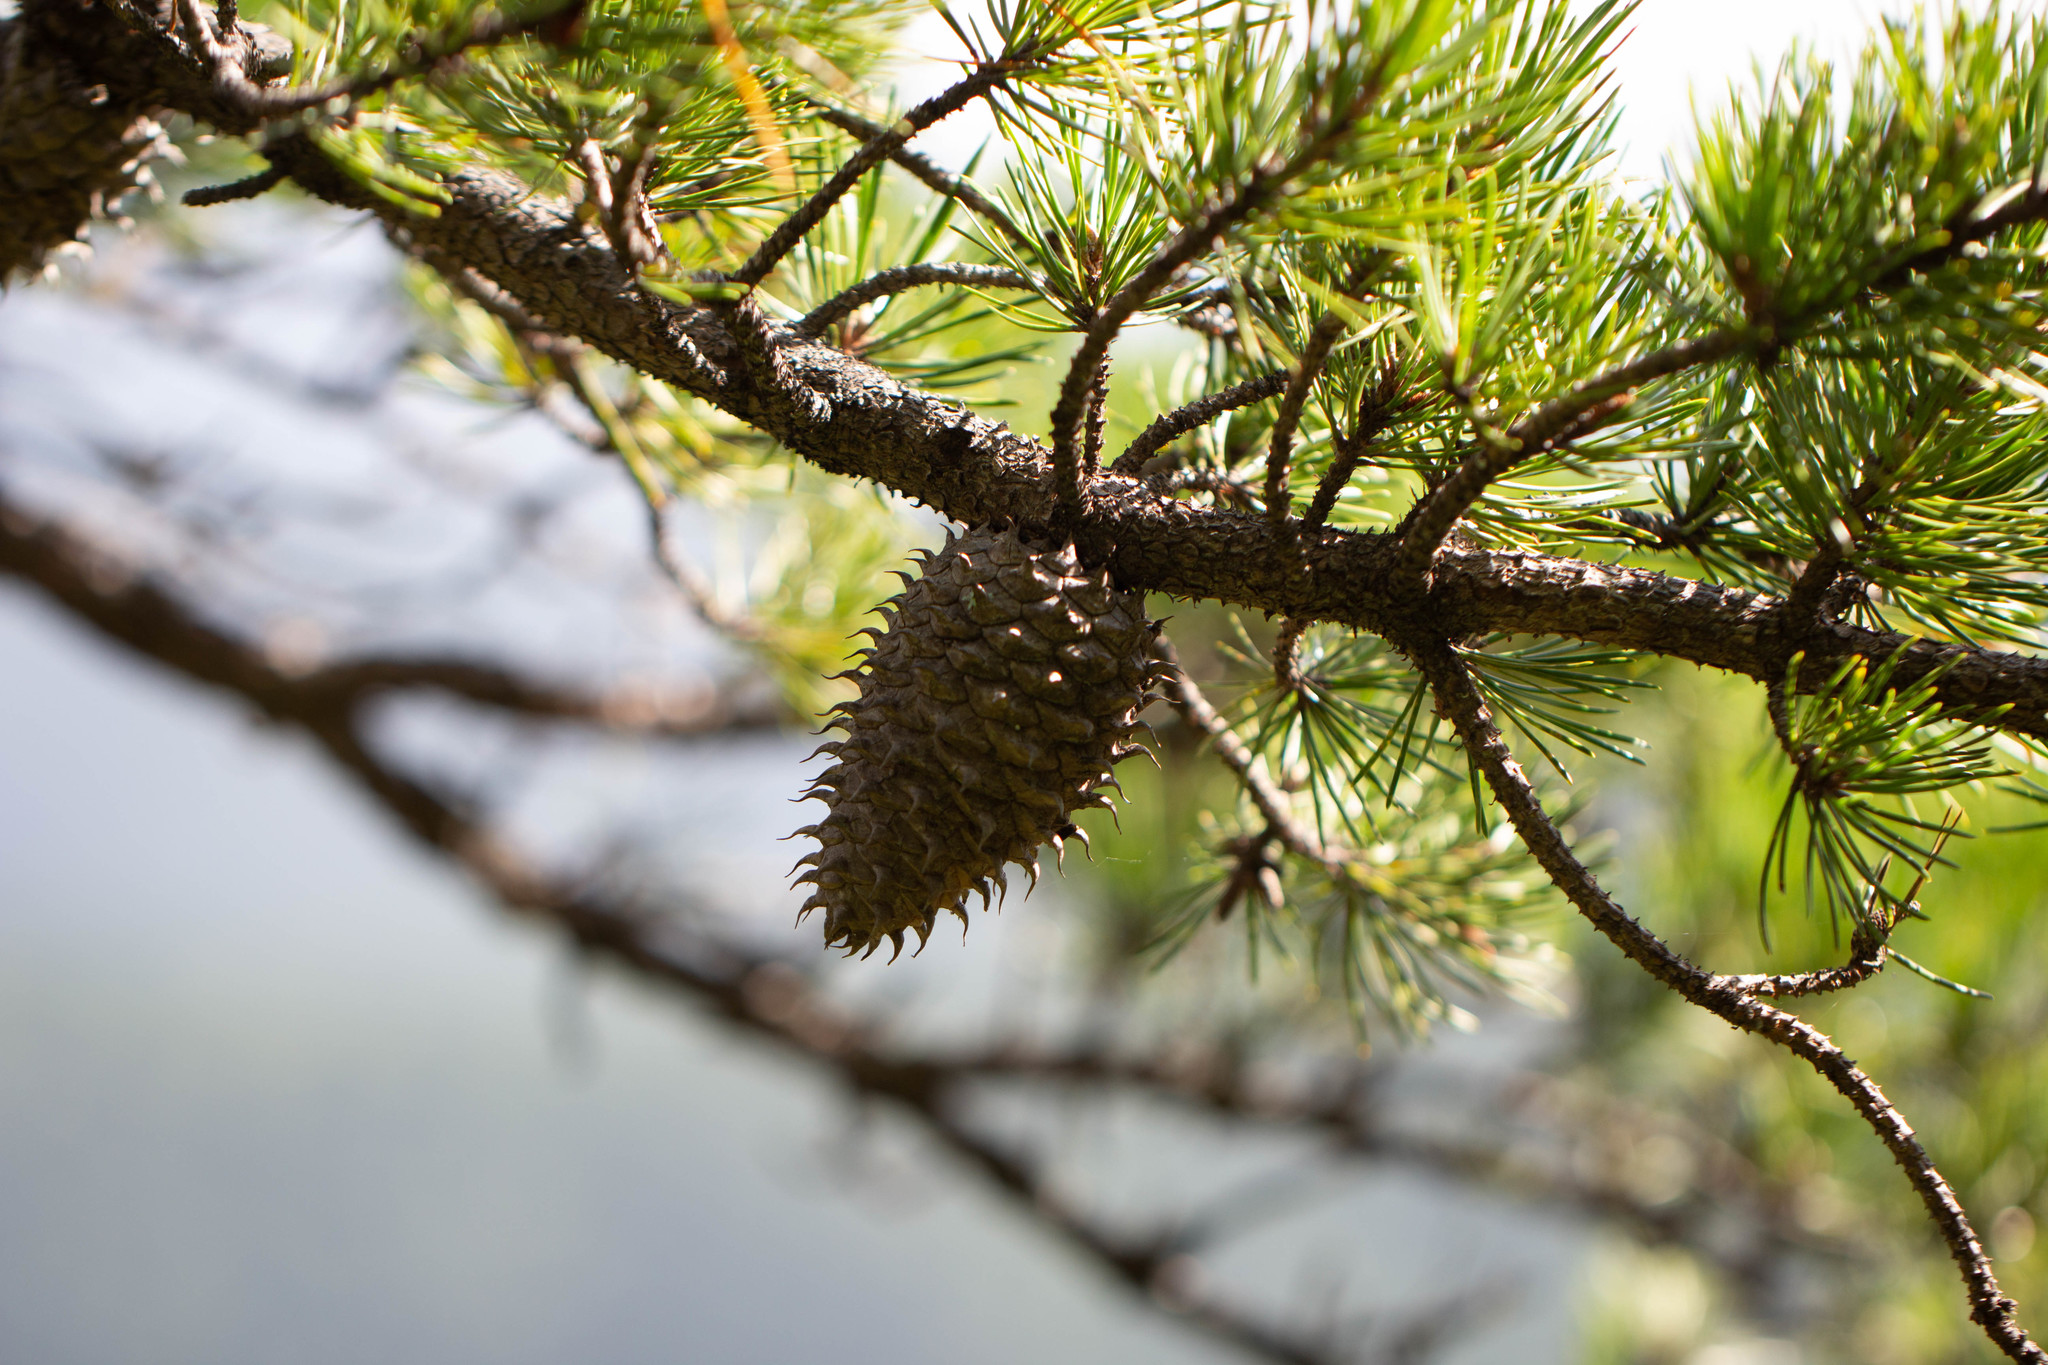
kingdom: Plantae
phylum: Tracheophyta
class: Pinopsida
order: Pinales
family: Pinaceae
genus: Pinus
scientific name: Pinus pungens
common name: Hickory pine
